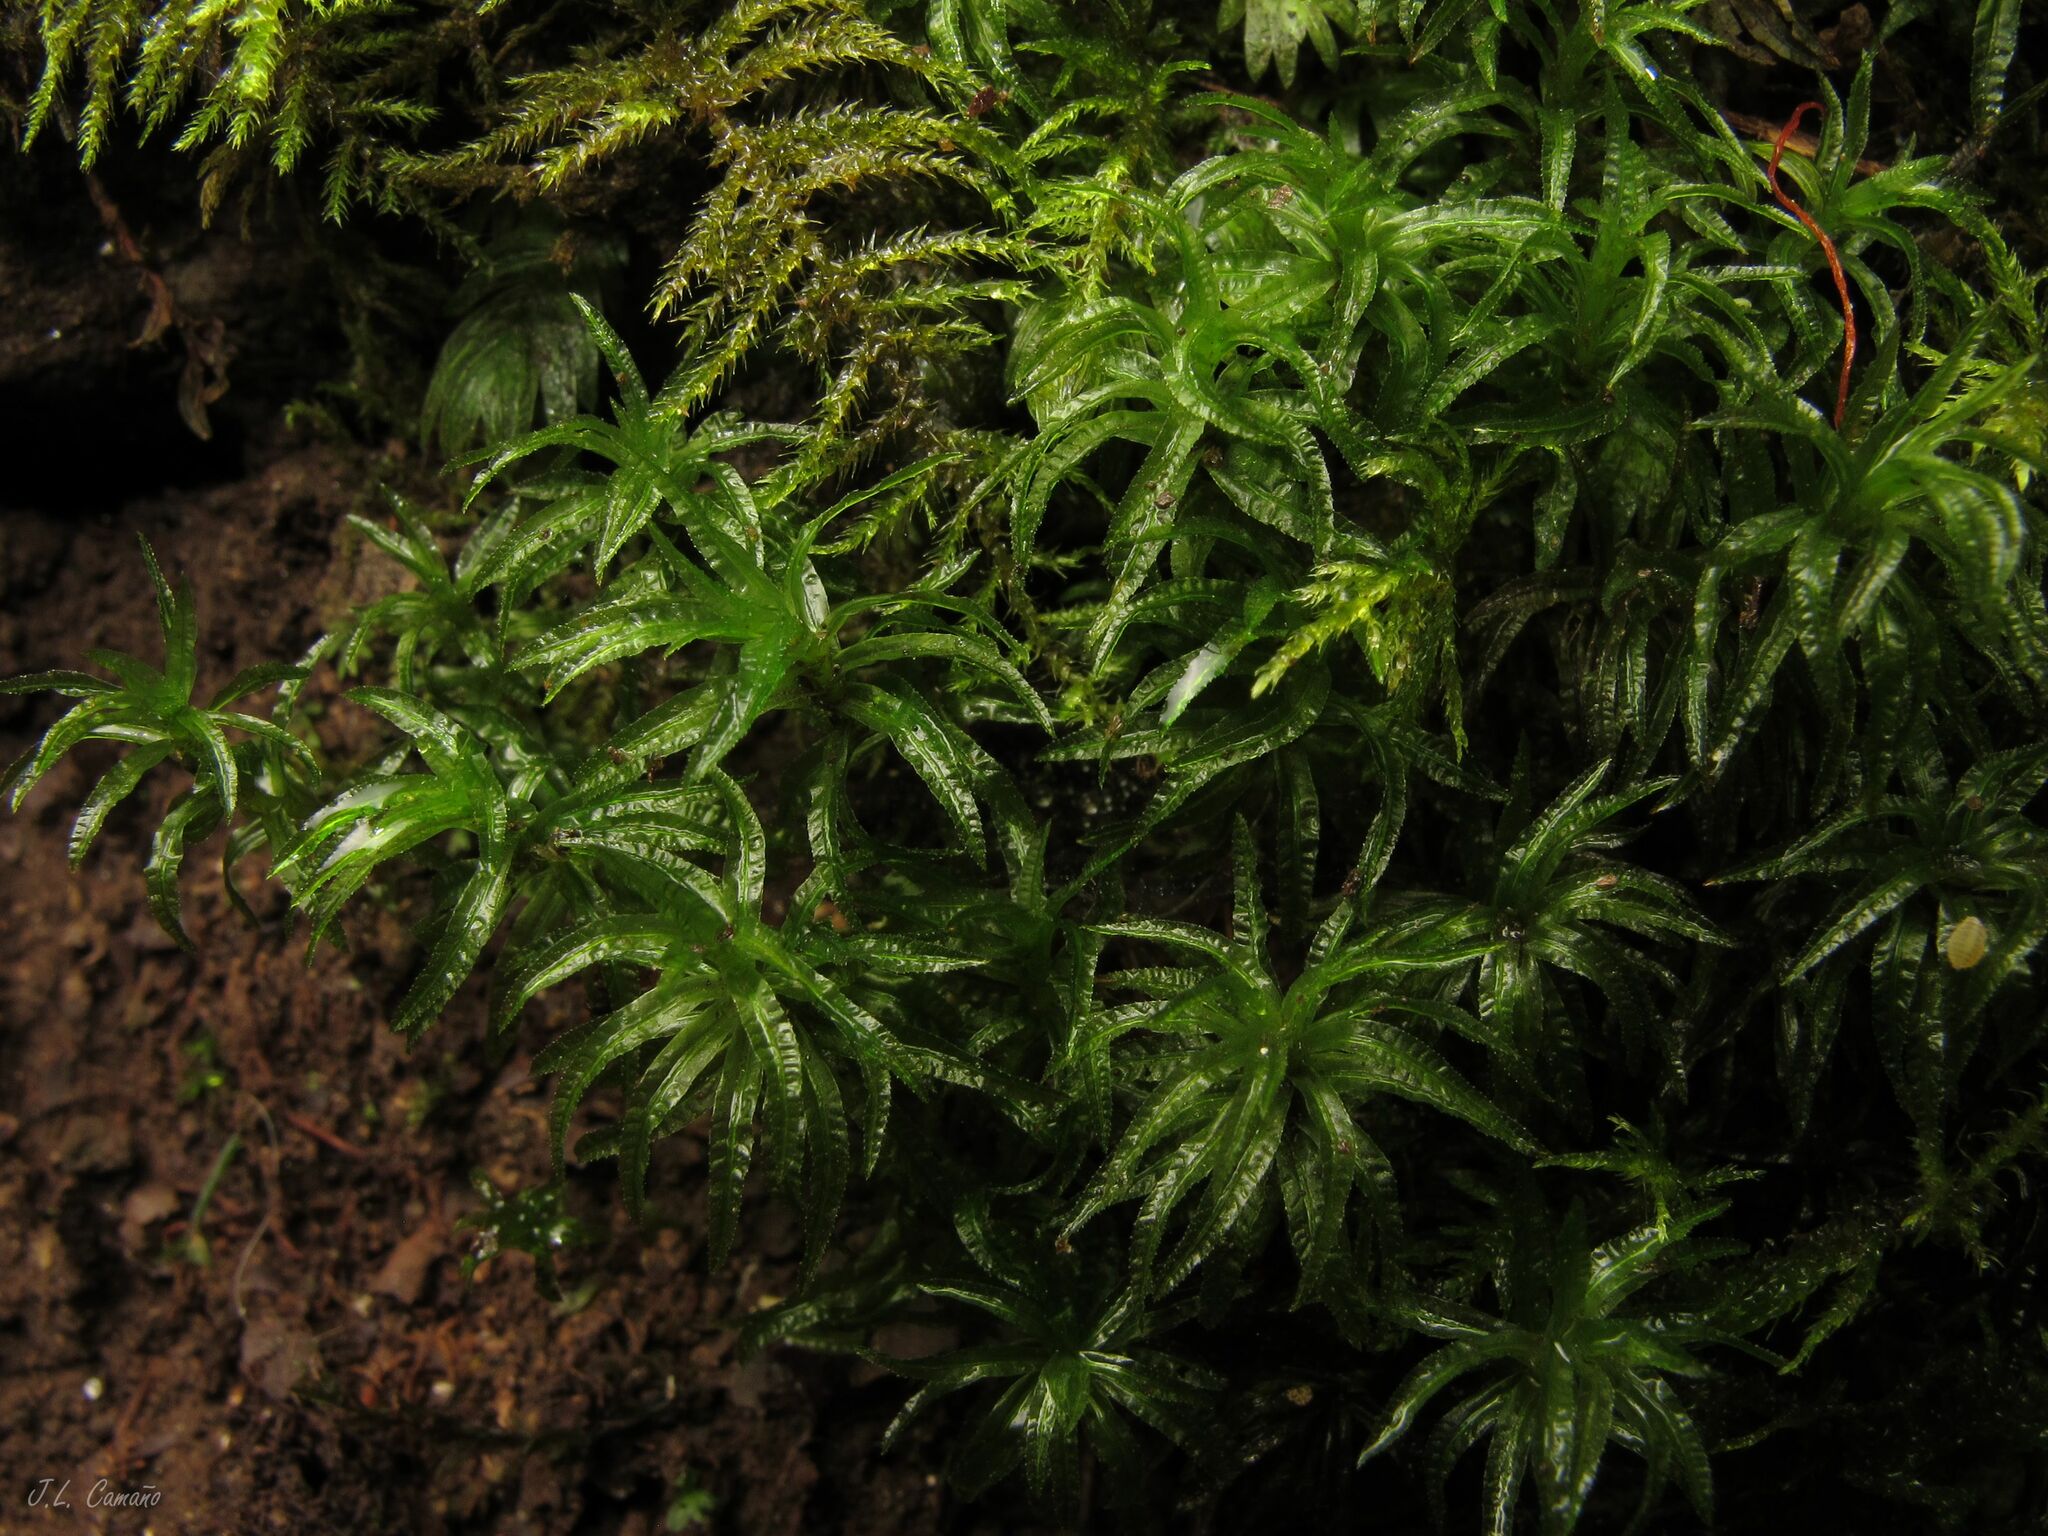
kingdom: Plantae
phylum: Bryophyta
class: Polytrichopsida
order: Polytrichales
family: Polytrichaceae
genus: Atrichum
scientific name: Atrichum undulatum
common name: Common smoothcap
